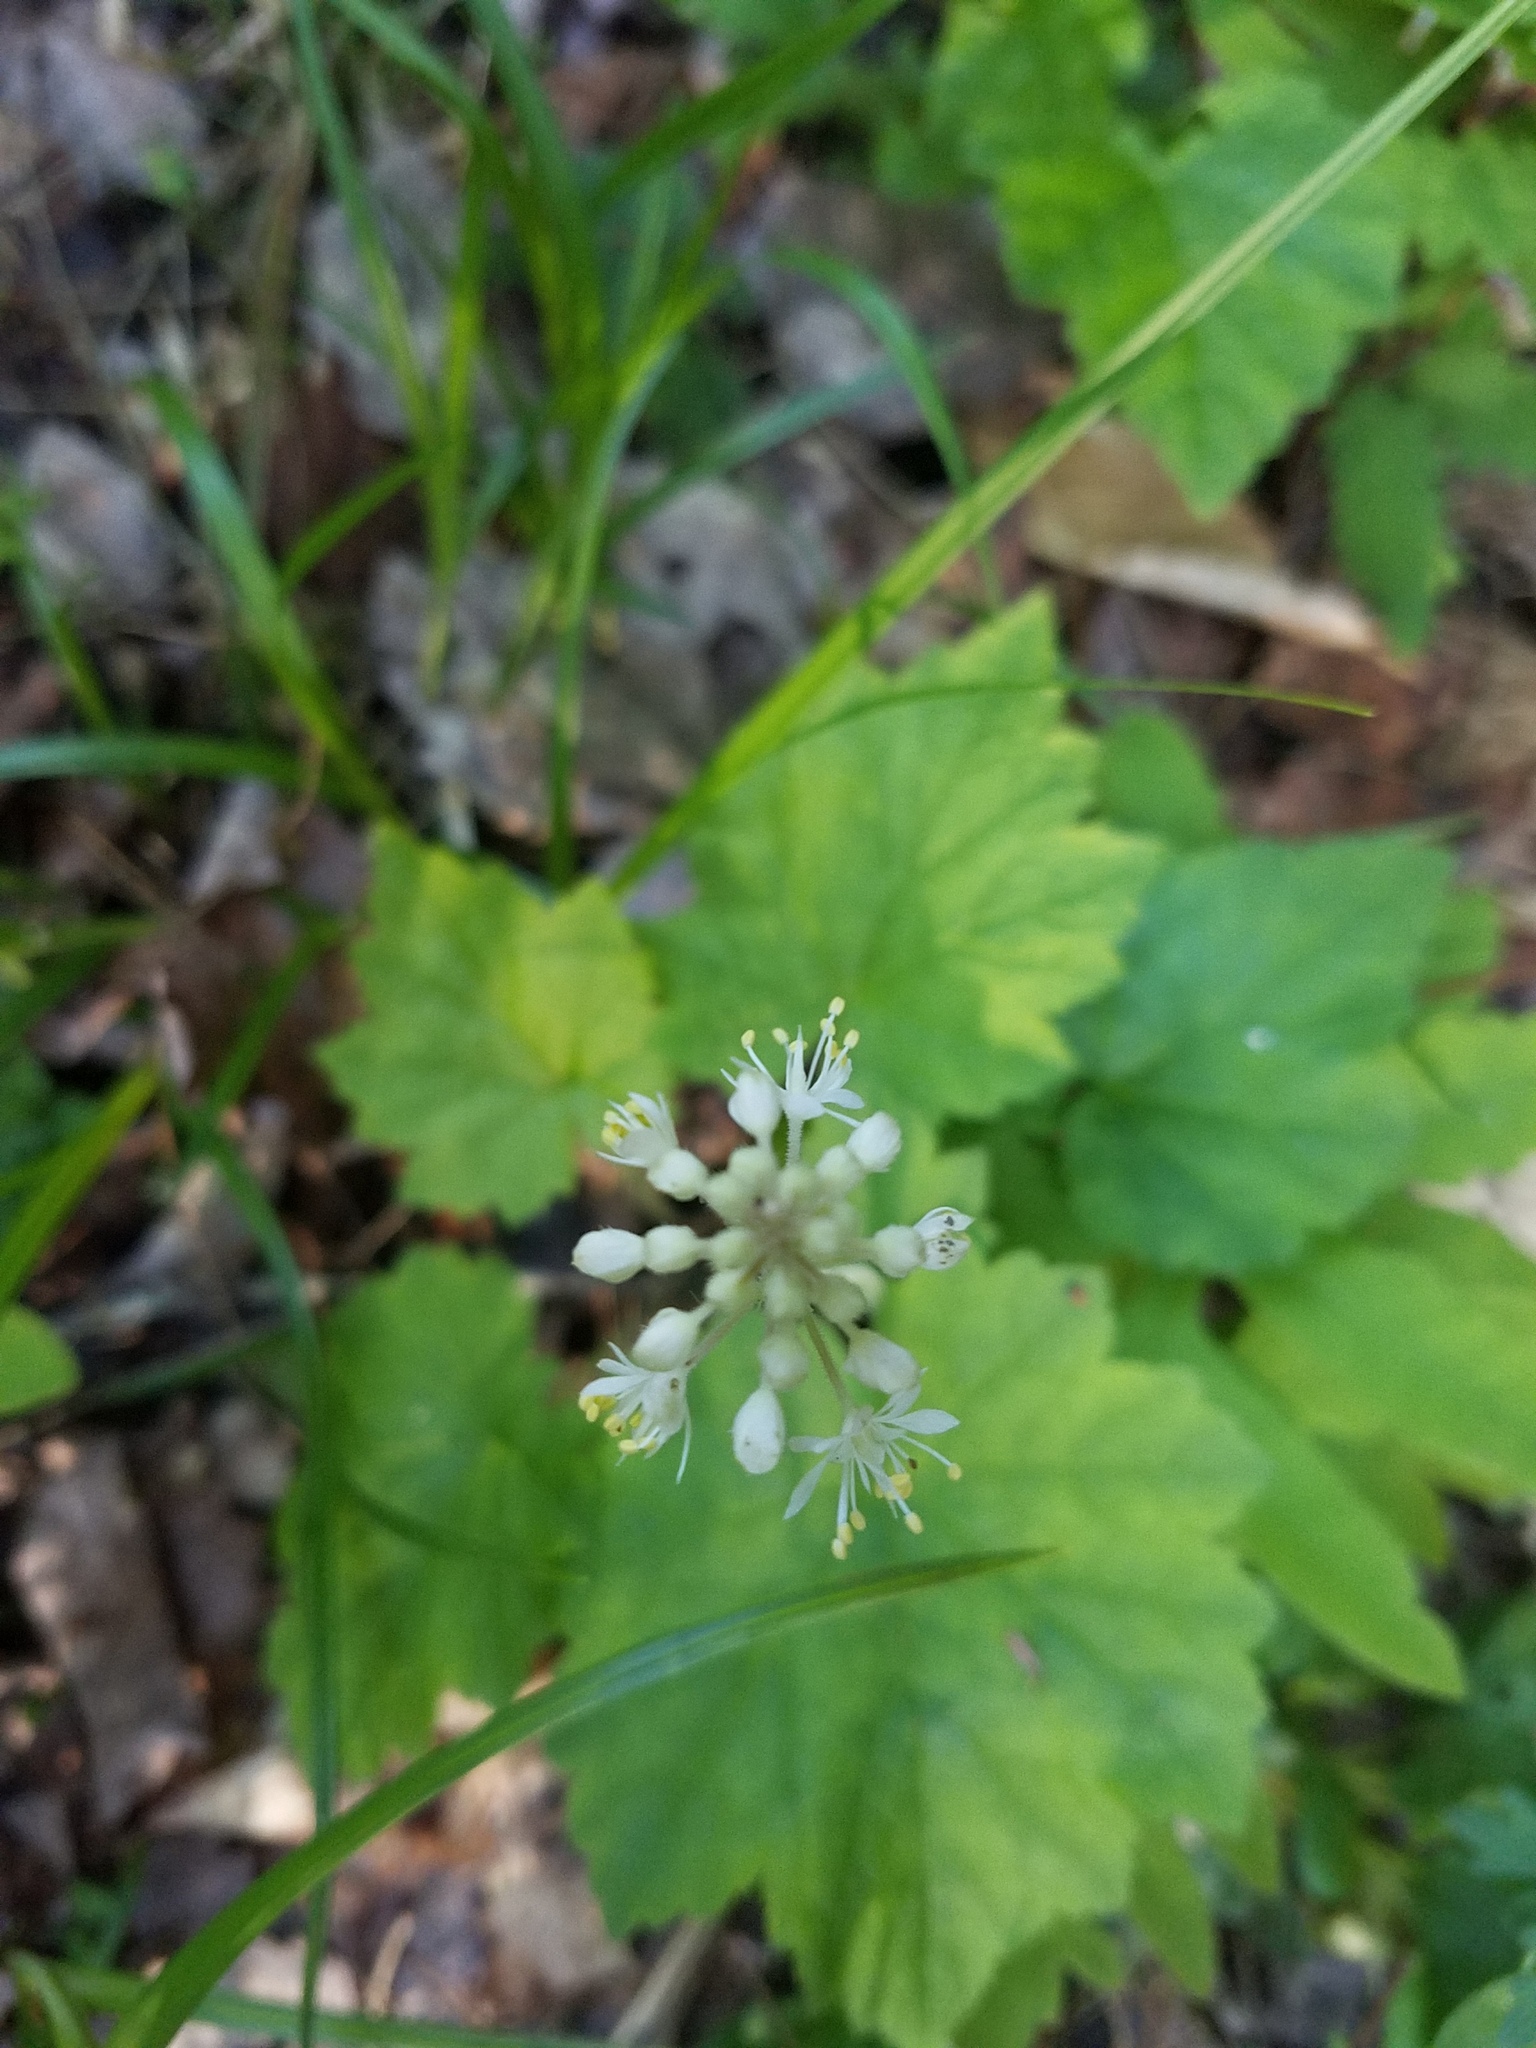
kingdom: Plantae
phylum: Tracheophyta
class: Magnoliopsida
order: Saxifragales
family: Saxifragaceae
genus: Tiarella
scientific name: Tiarella stolonifera
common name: Stoloniferous foamflower
